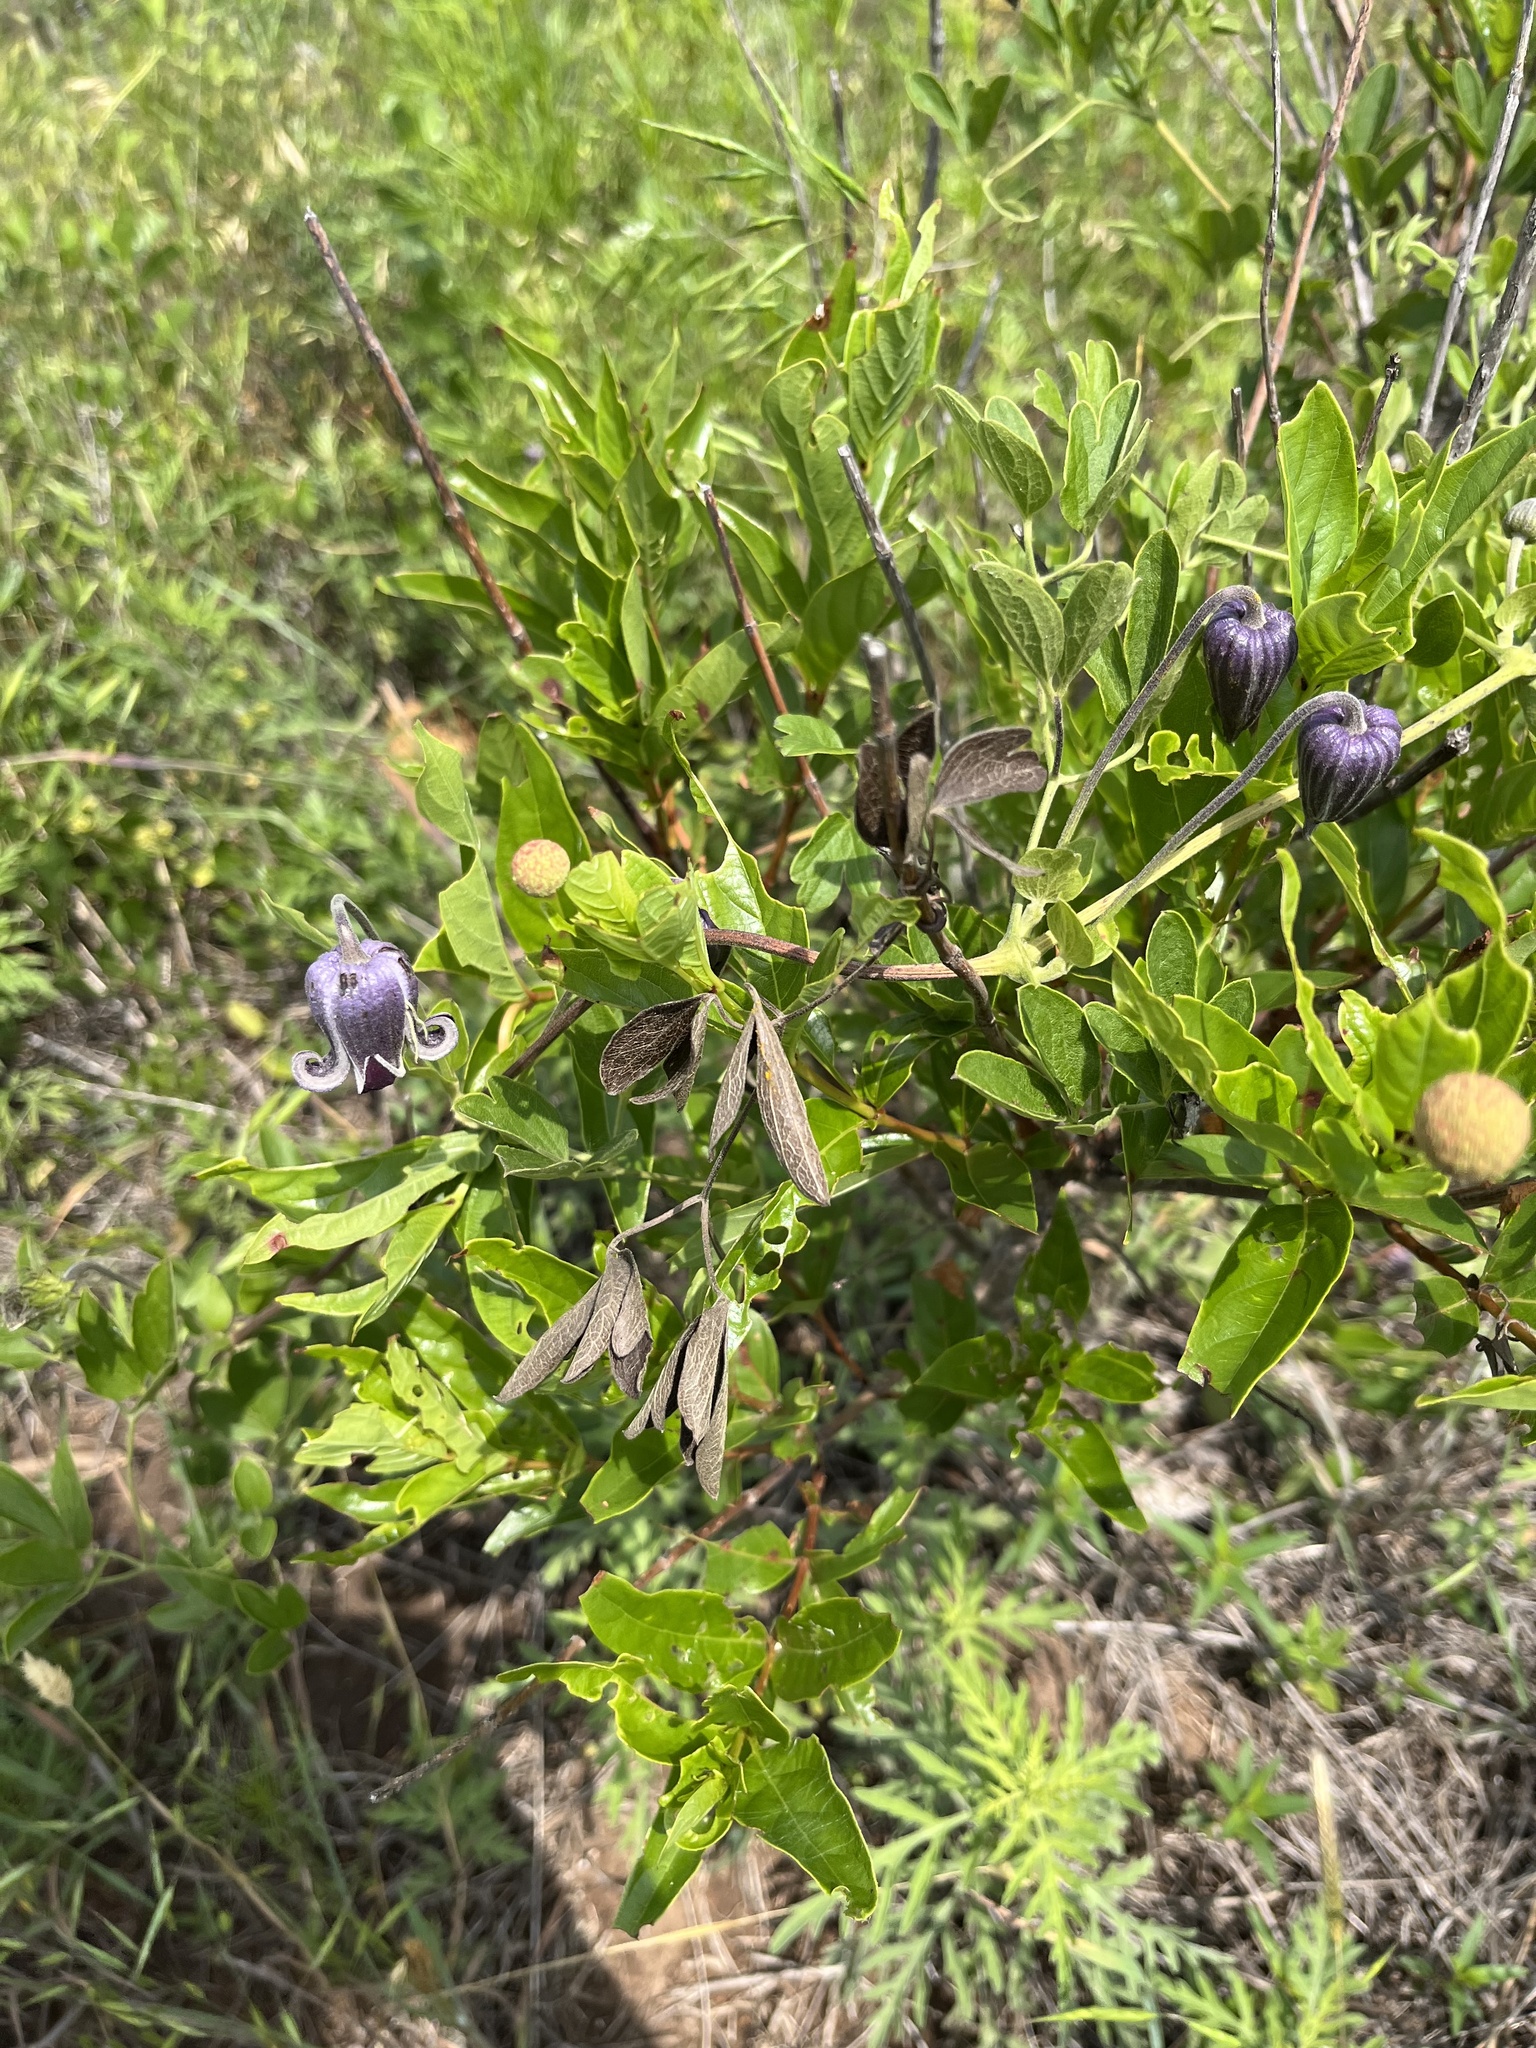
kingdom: Plantae
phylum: Tracheophyta
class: Magnoliopsida
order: Ranunculales
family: Ranunculaceae
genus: Clematis
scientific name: Clematis pitcheri
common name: Bellflower clematis
